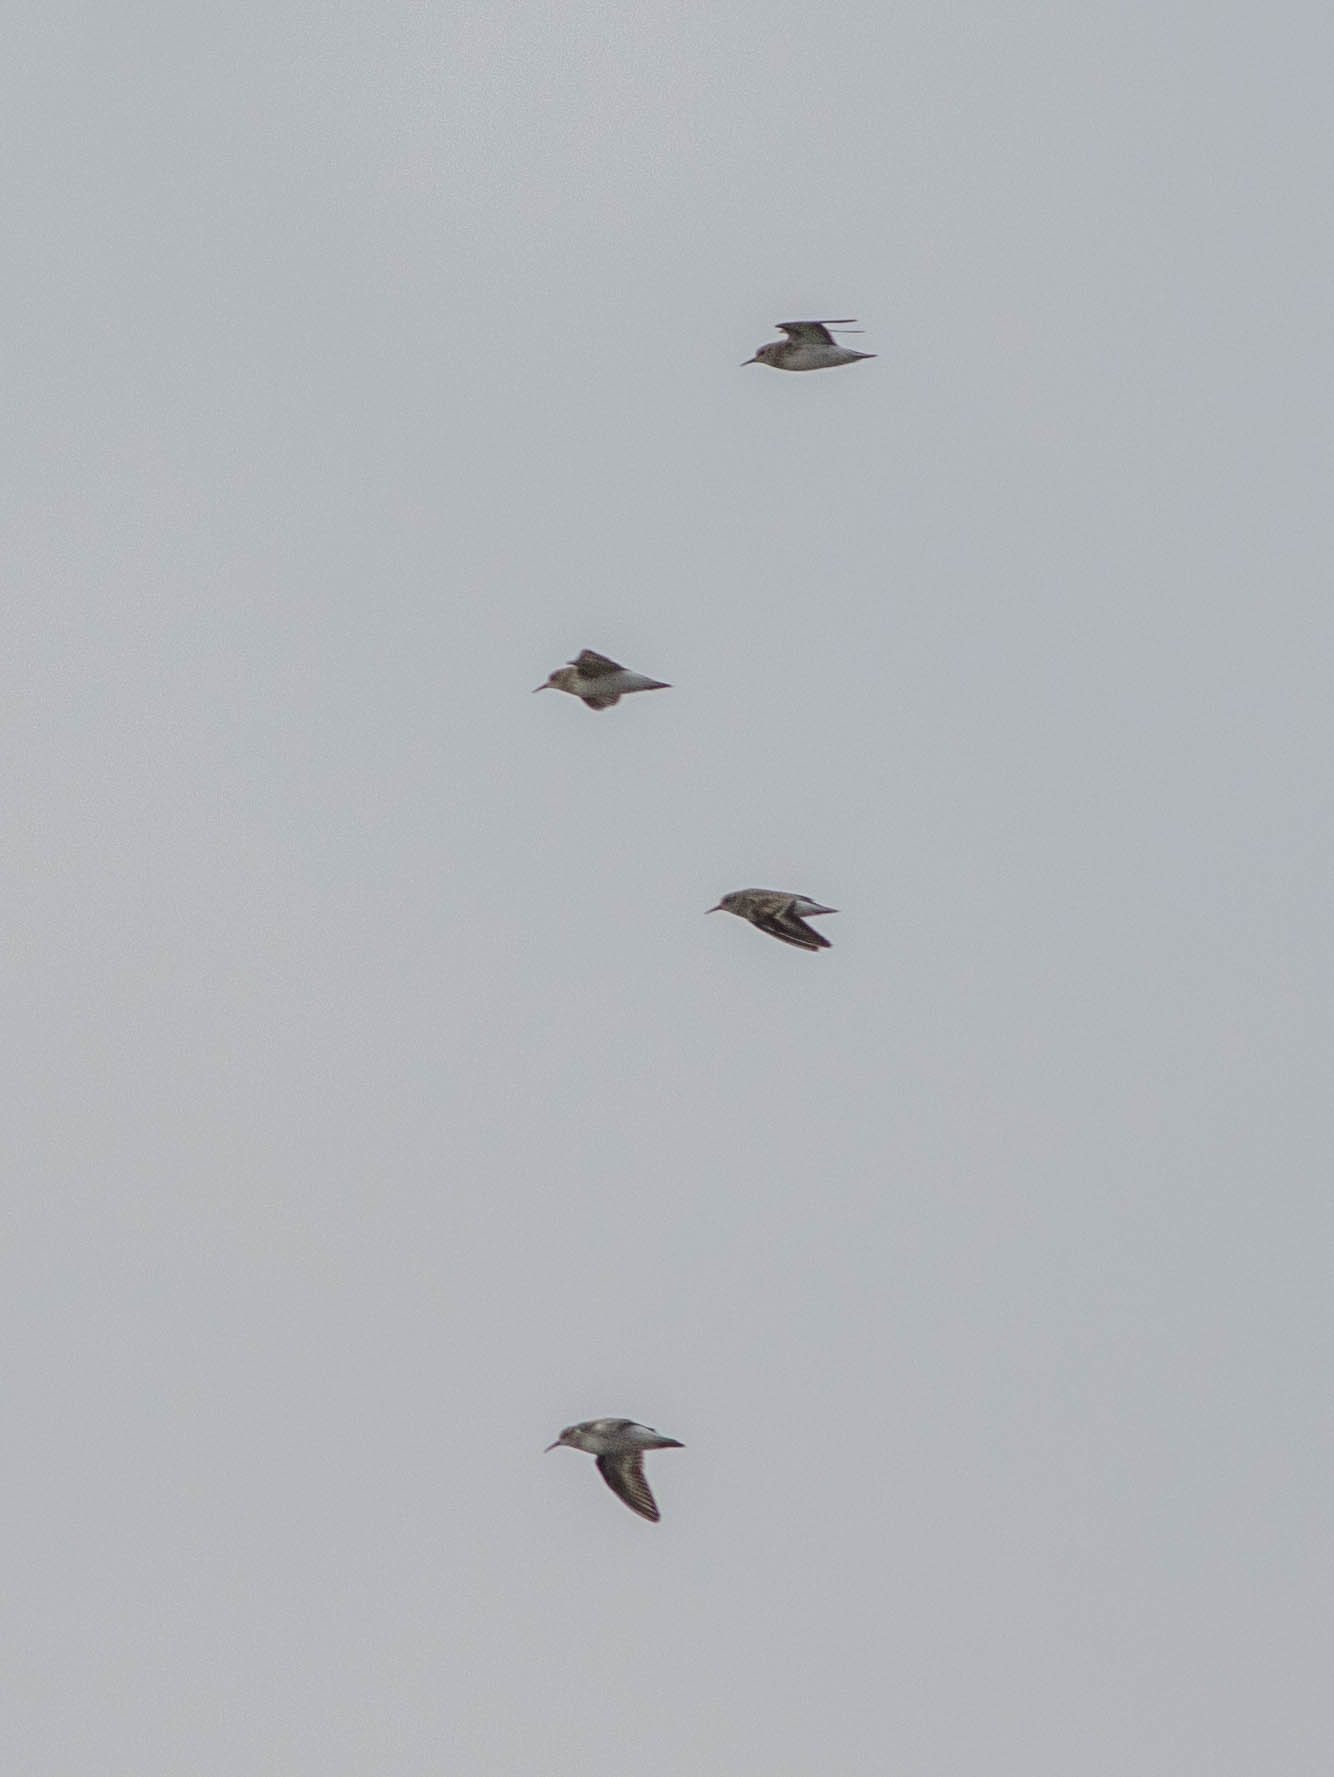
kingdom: Animalia
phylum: Chordata
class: Aves
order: Charadriiformes
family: Scolopacidae
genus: Calidris
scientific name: Calidris minutilla
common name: Least sandpiper
